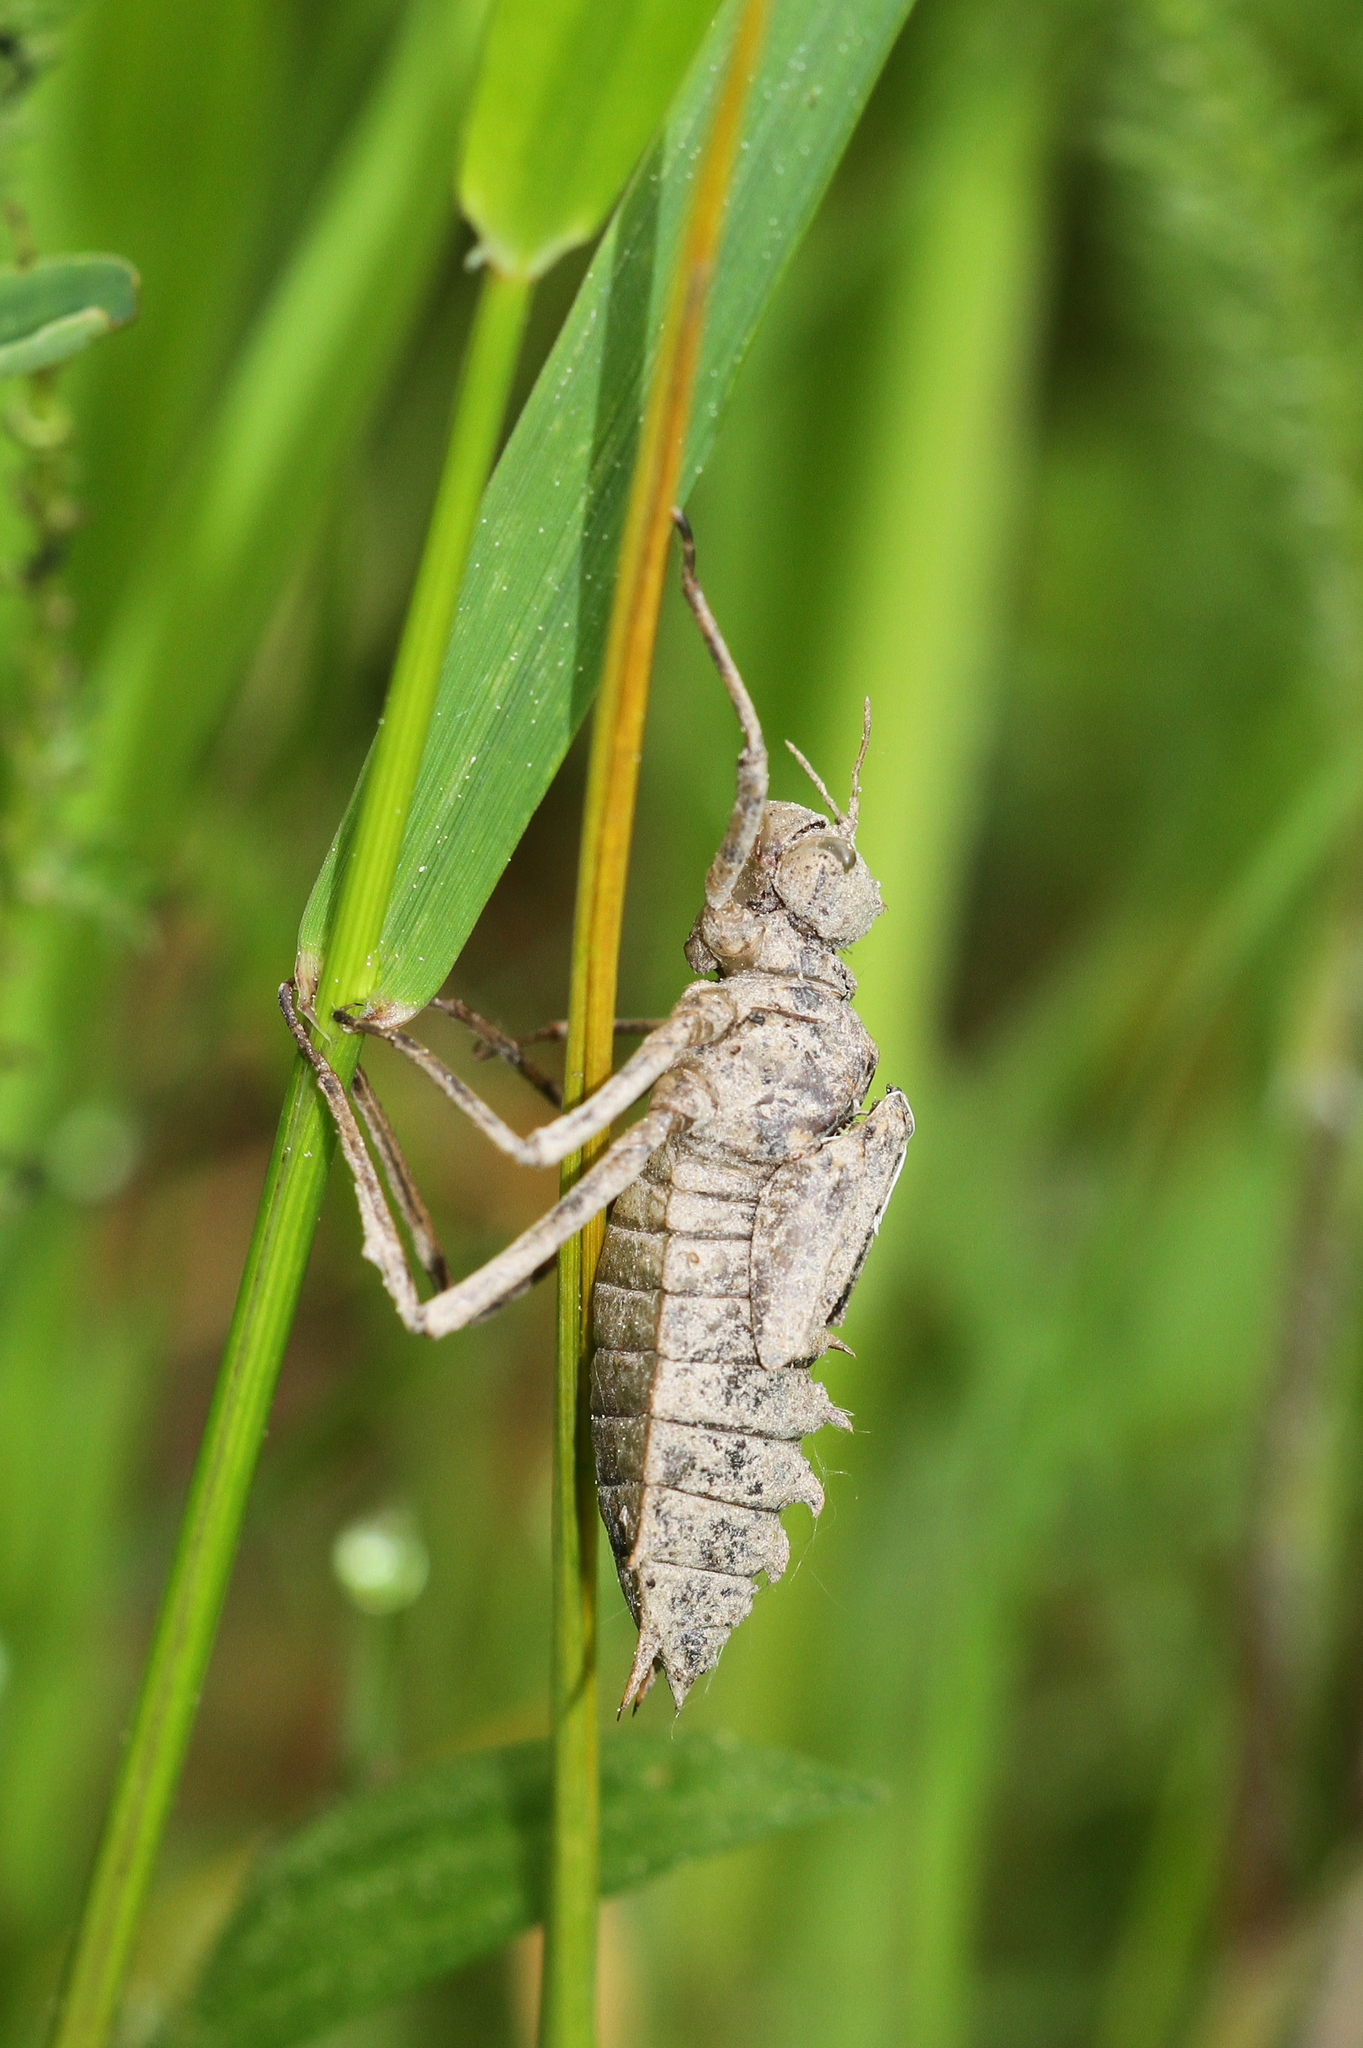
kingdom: Animalia
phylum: Arthropoda
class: Insecta
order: Odonata
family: Corduliidae
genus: Epitheca
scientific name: Epitheca bimaculata
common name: Eurasian baskettail
